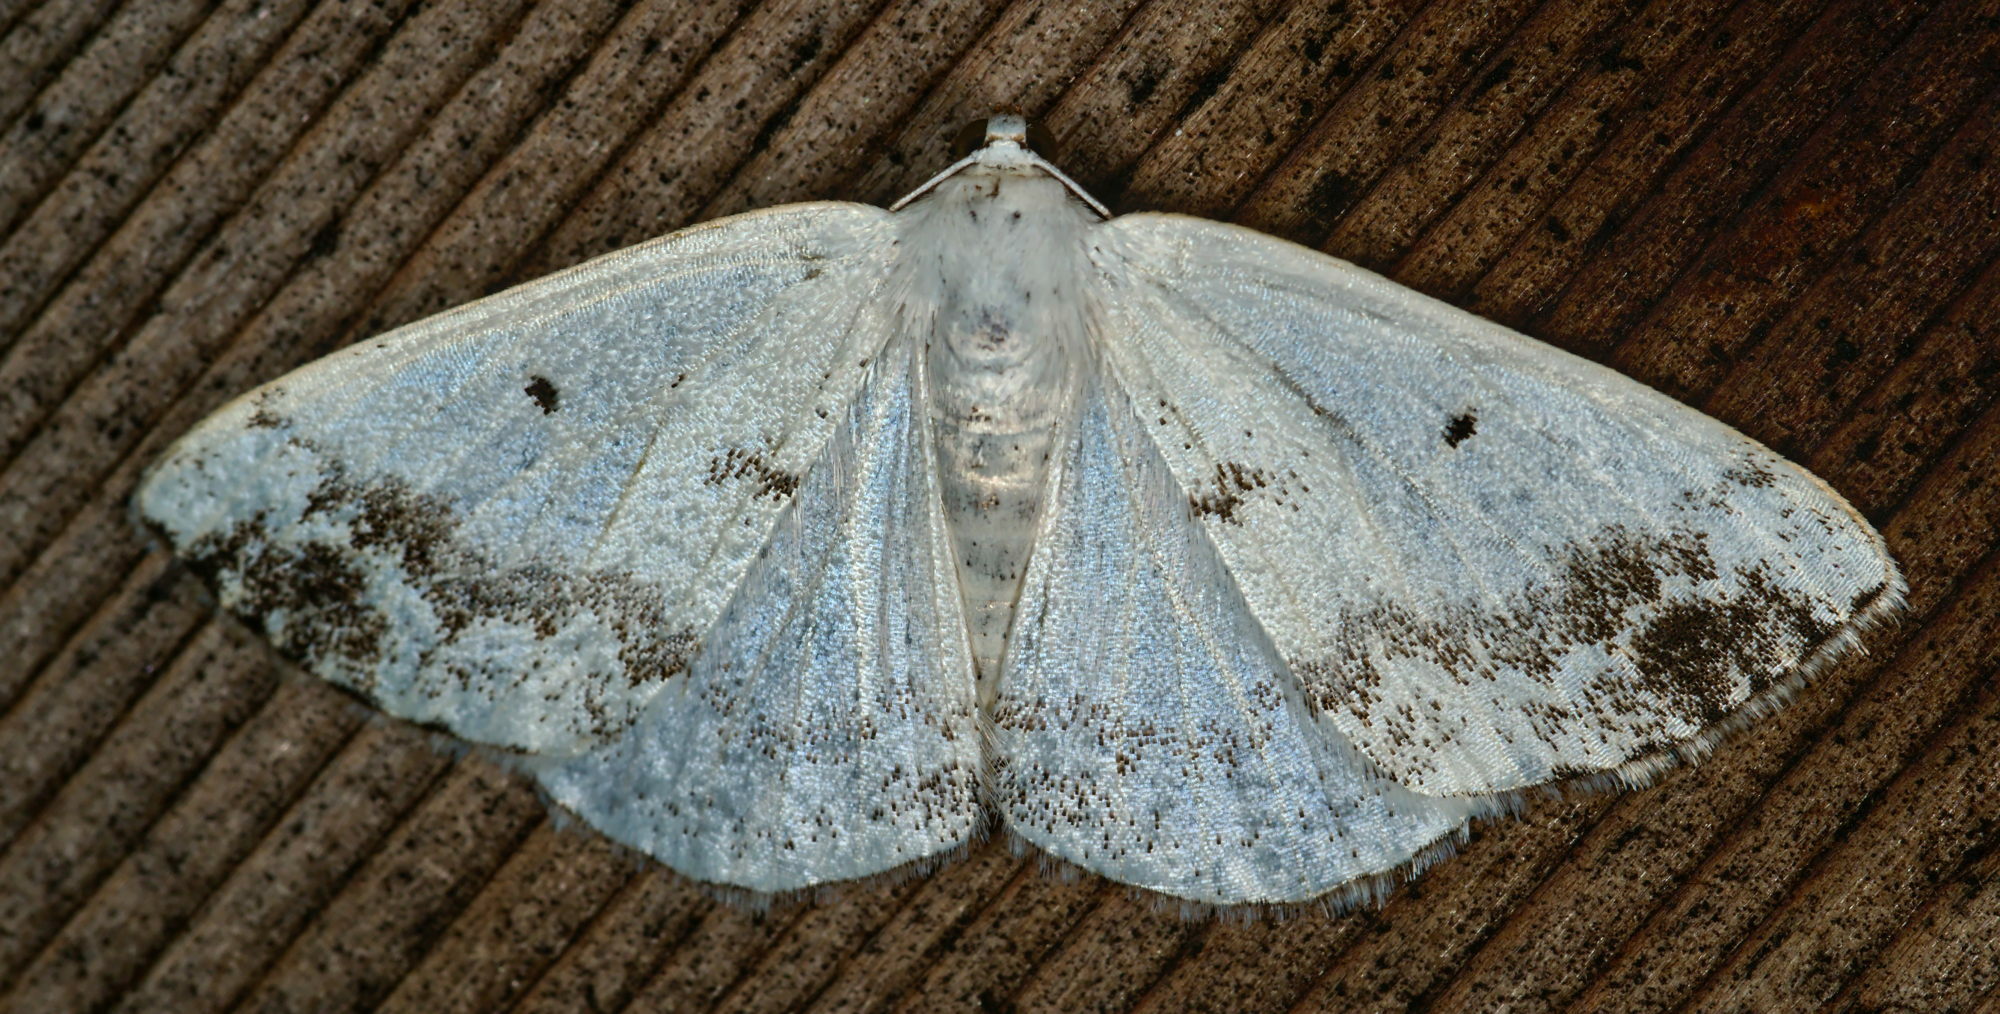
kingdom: Animalia
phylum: Arthropoda
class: Insecta
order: Lepidoptera
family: Geometridae
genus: Lomographa
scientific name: Lomographa temerata
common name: Clouded silver
